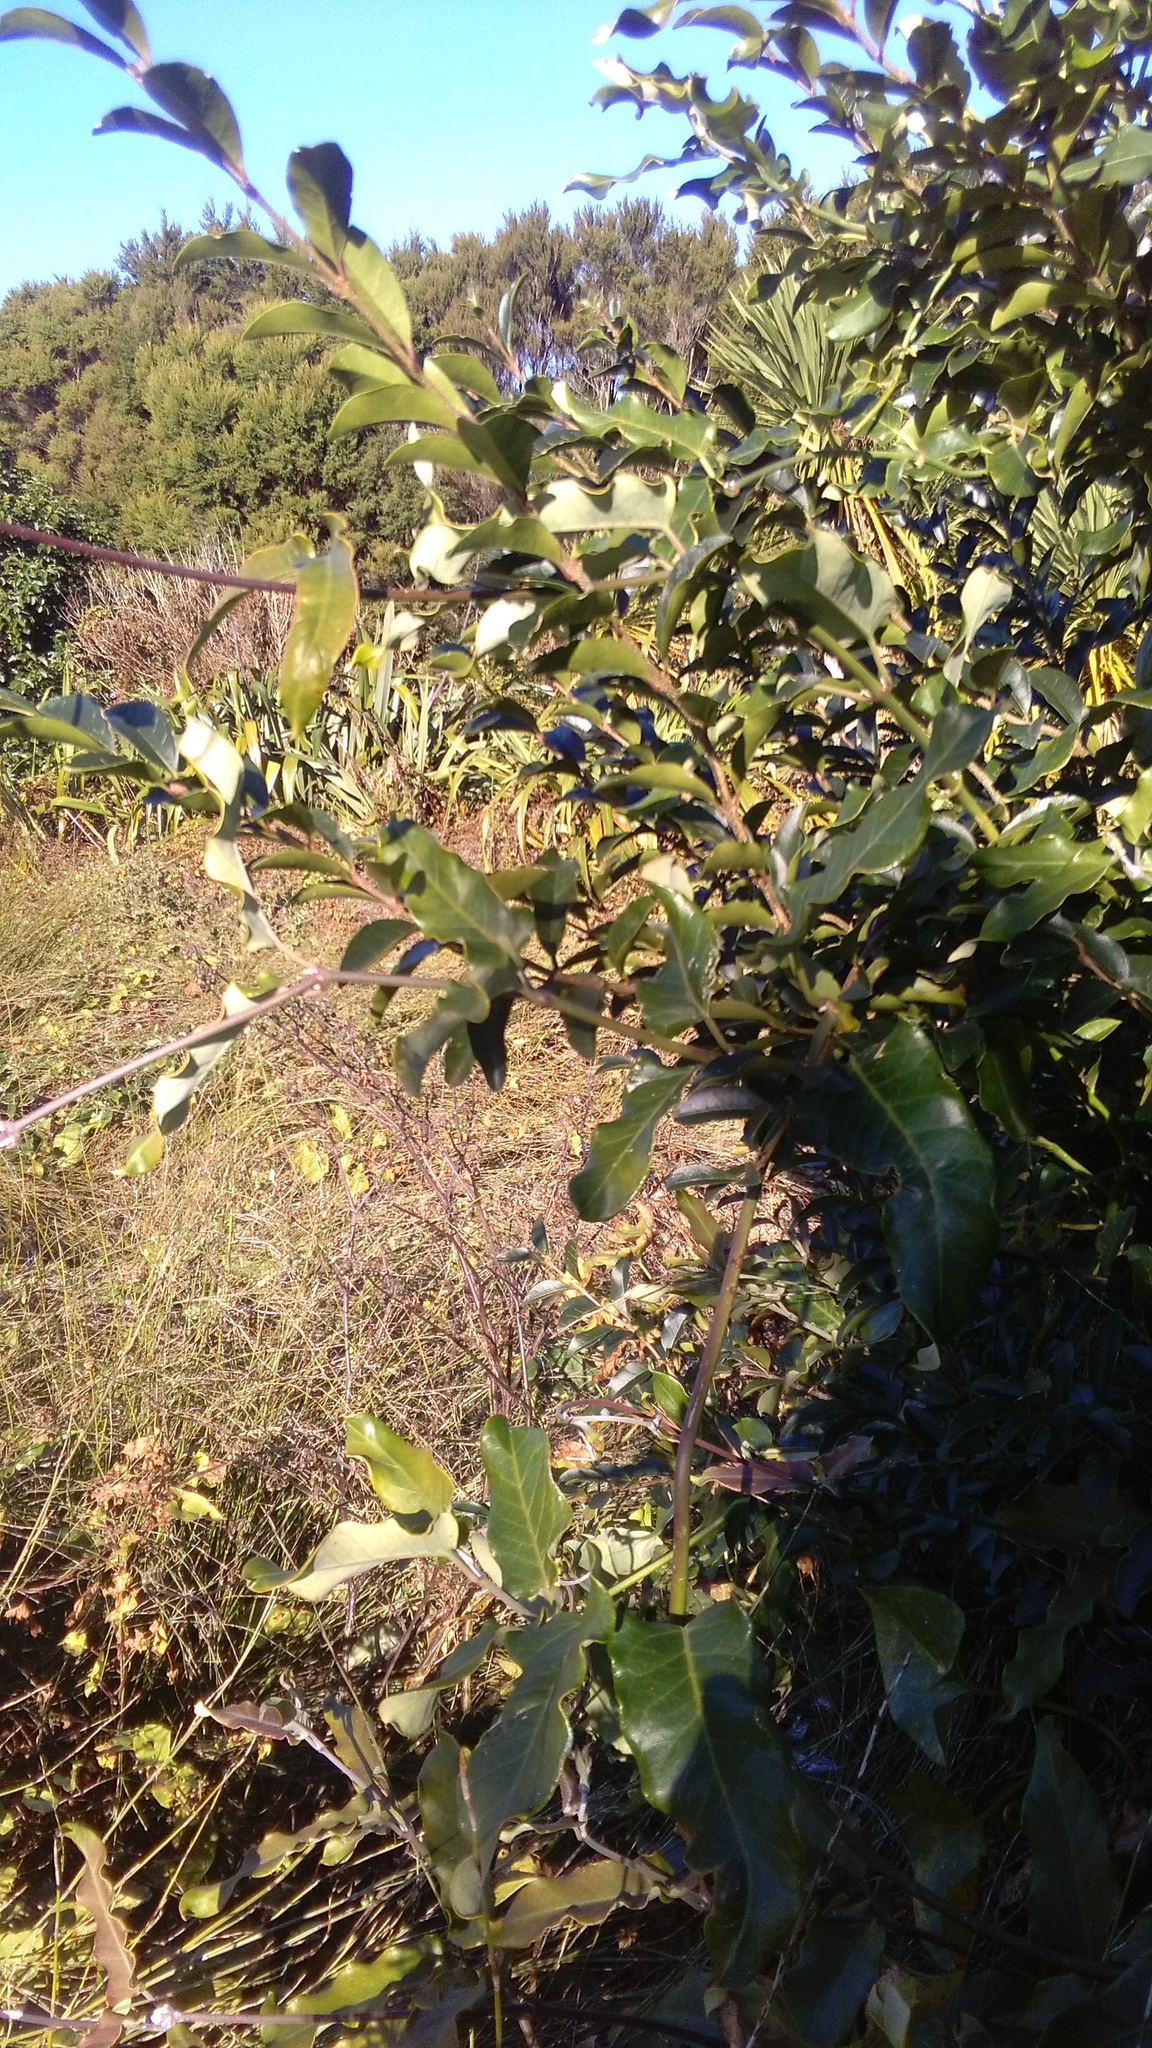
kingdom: Plantae
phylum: Tracheophyta
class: Magnoliopsida
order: Gentianales
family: Apocynaceae
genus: Araujia
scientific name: Araujia sericifera
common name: White bladderflower
